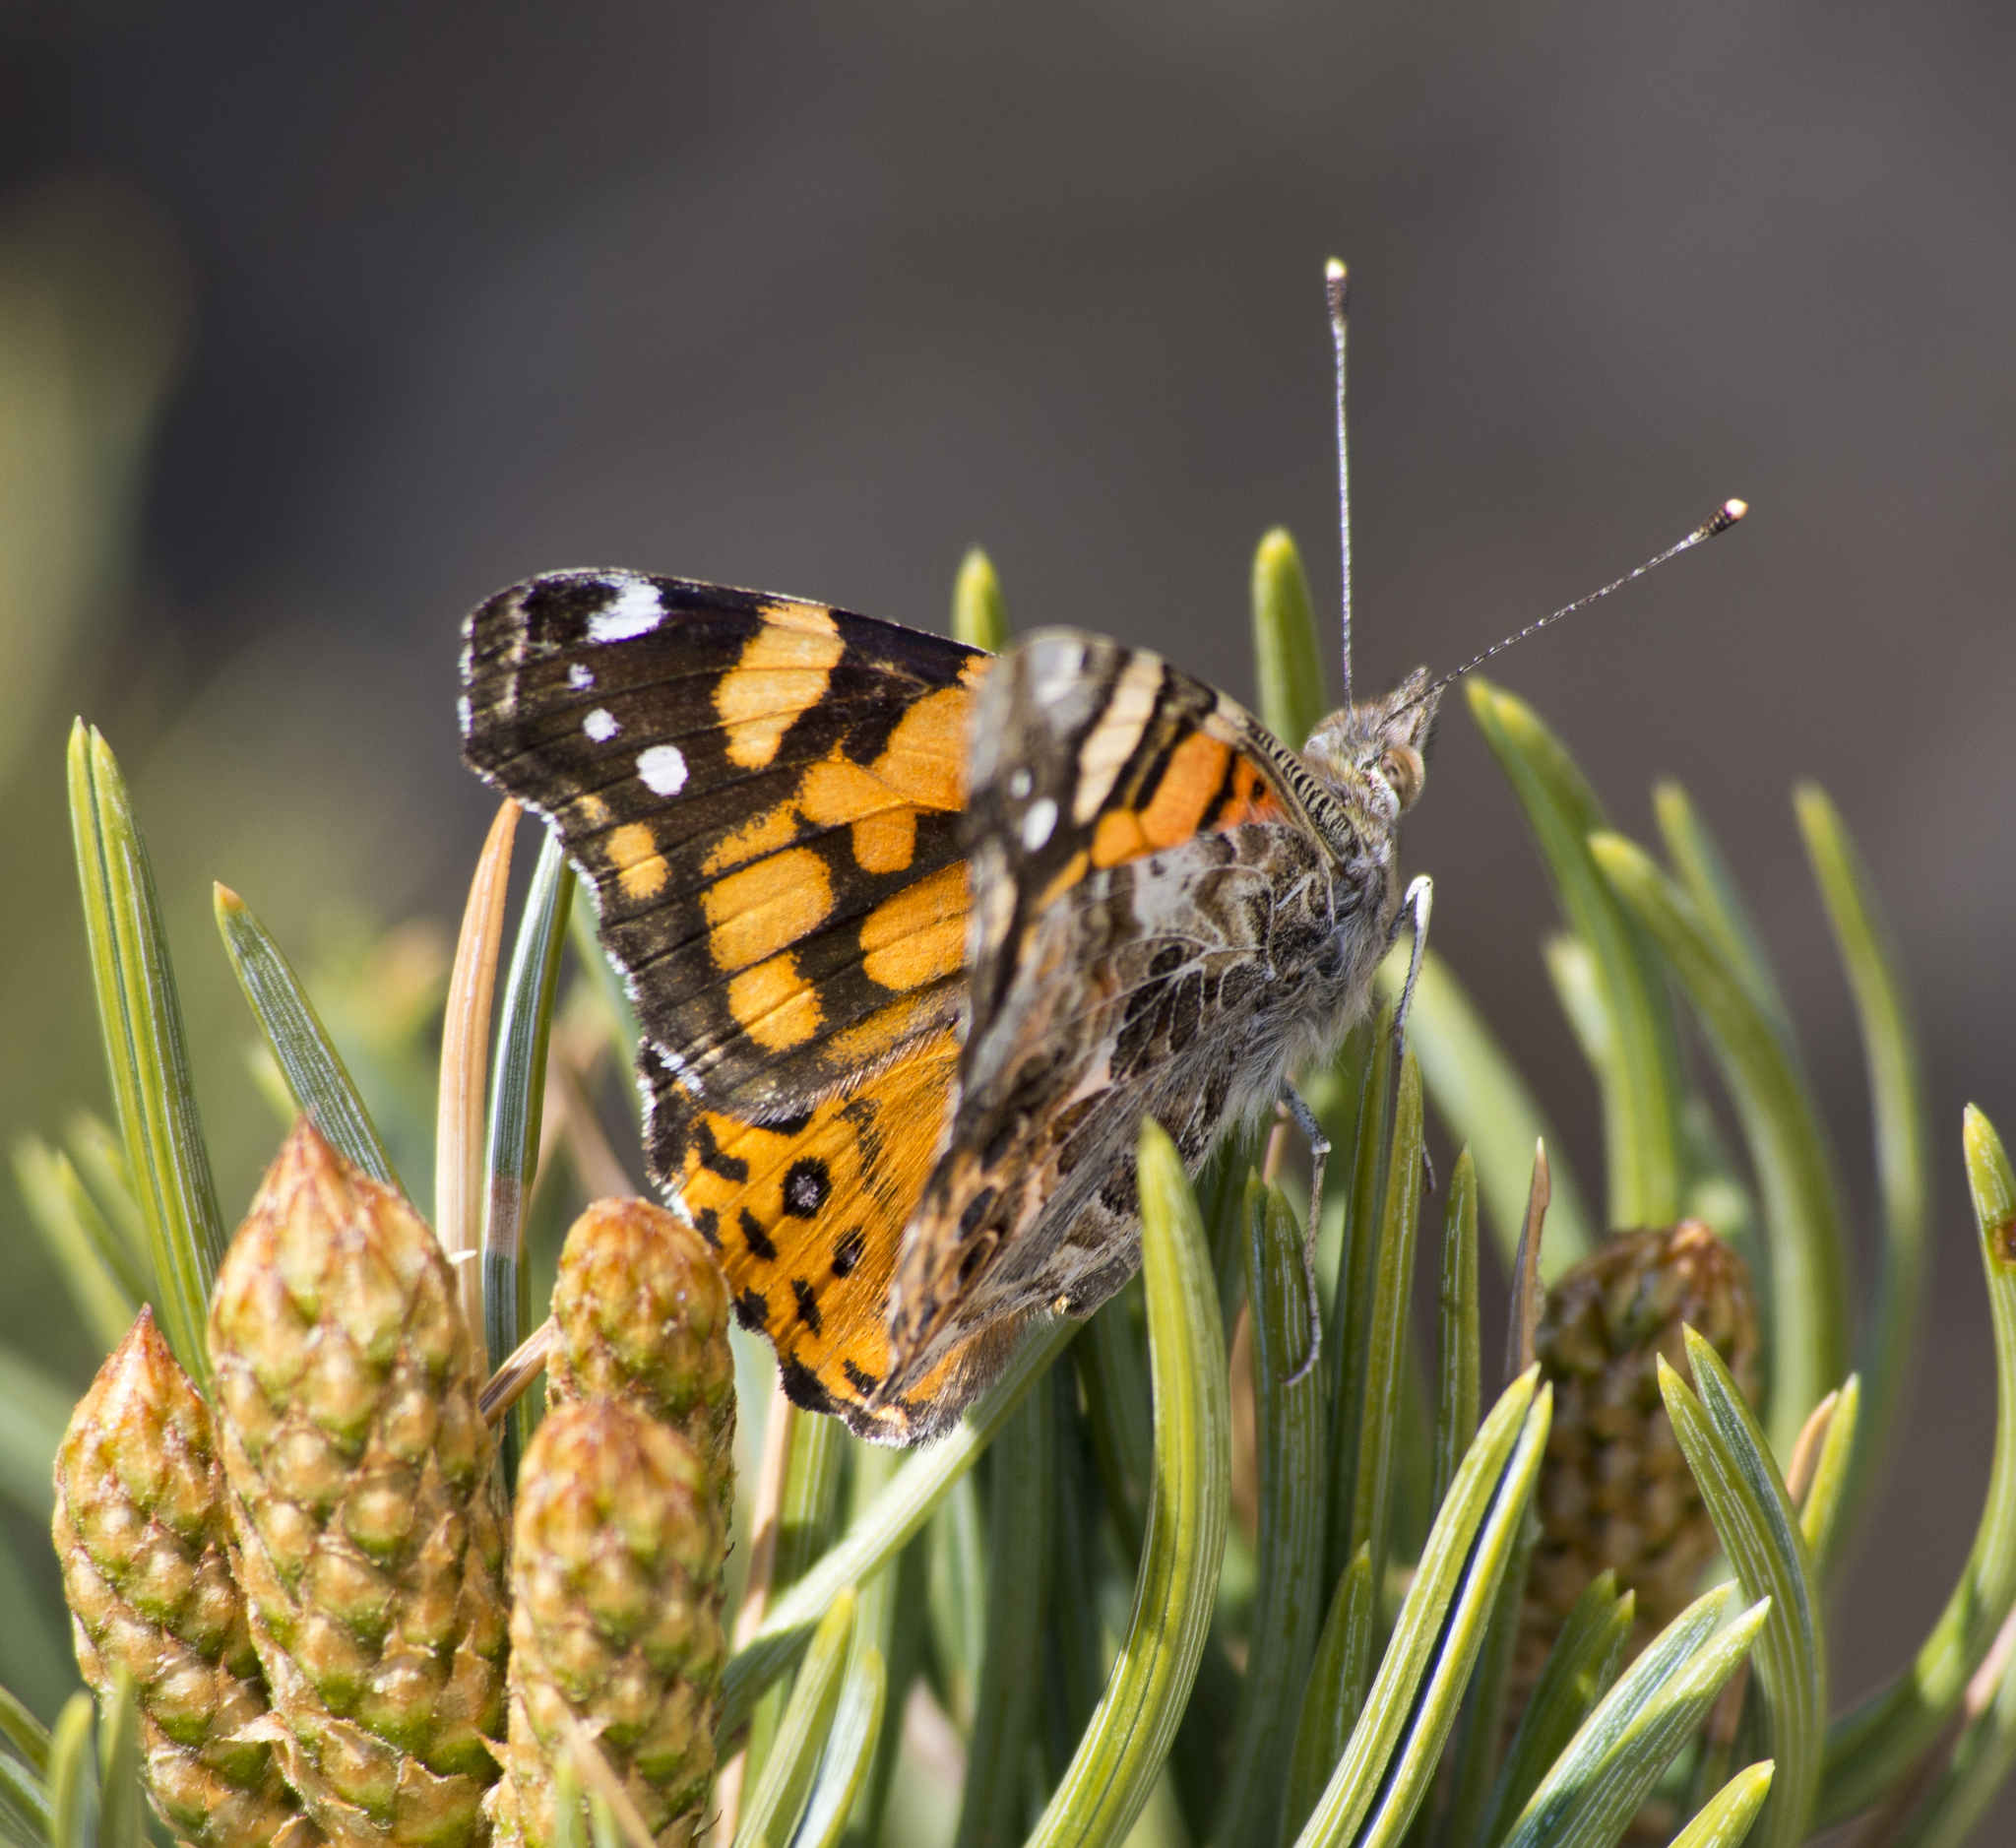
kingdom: Animalia
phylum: Arthropoda
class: Insecta
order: Lepidoptera
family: Nymphalidae
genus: Vanessa
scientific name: Vanessa annabella
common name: West coast lady
